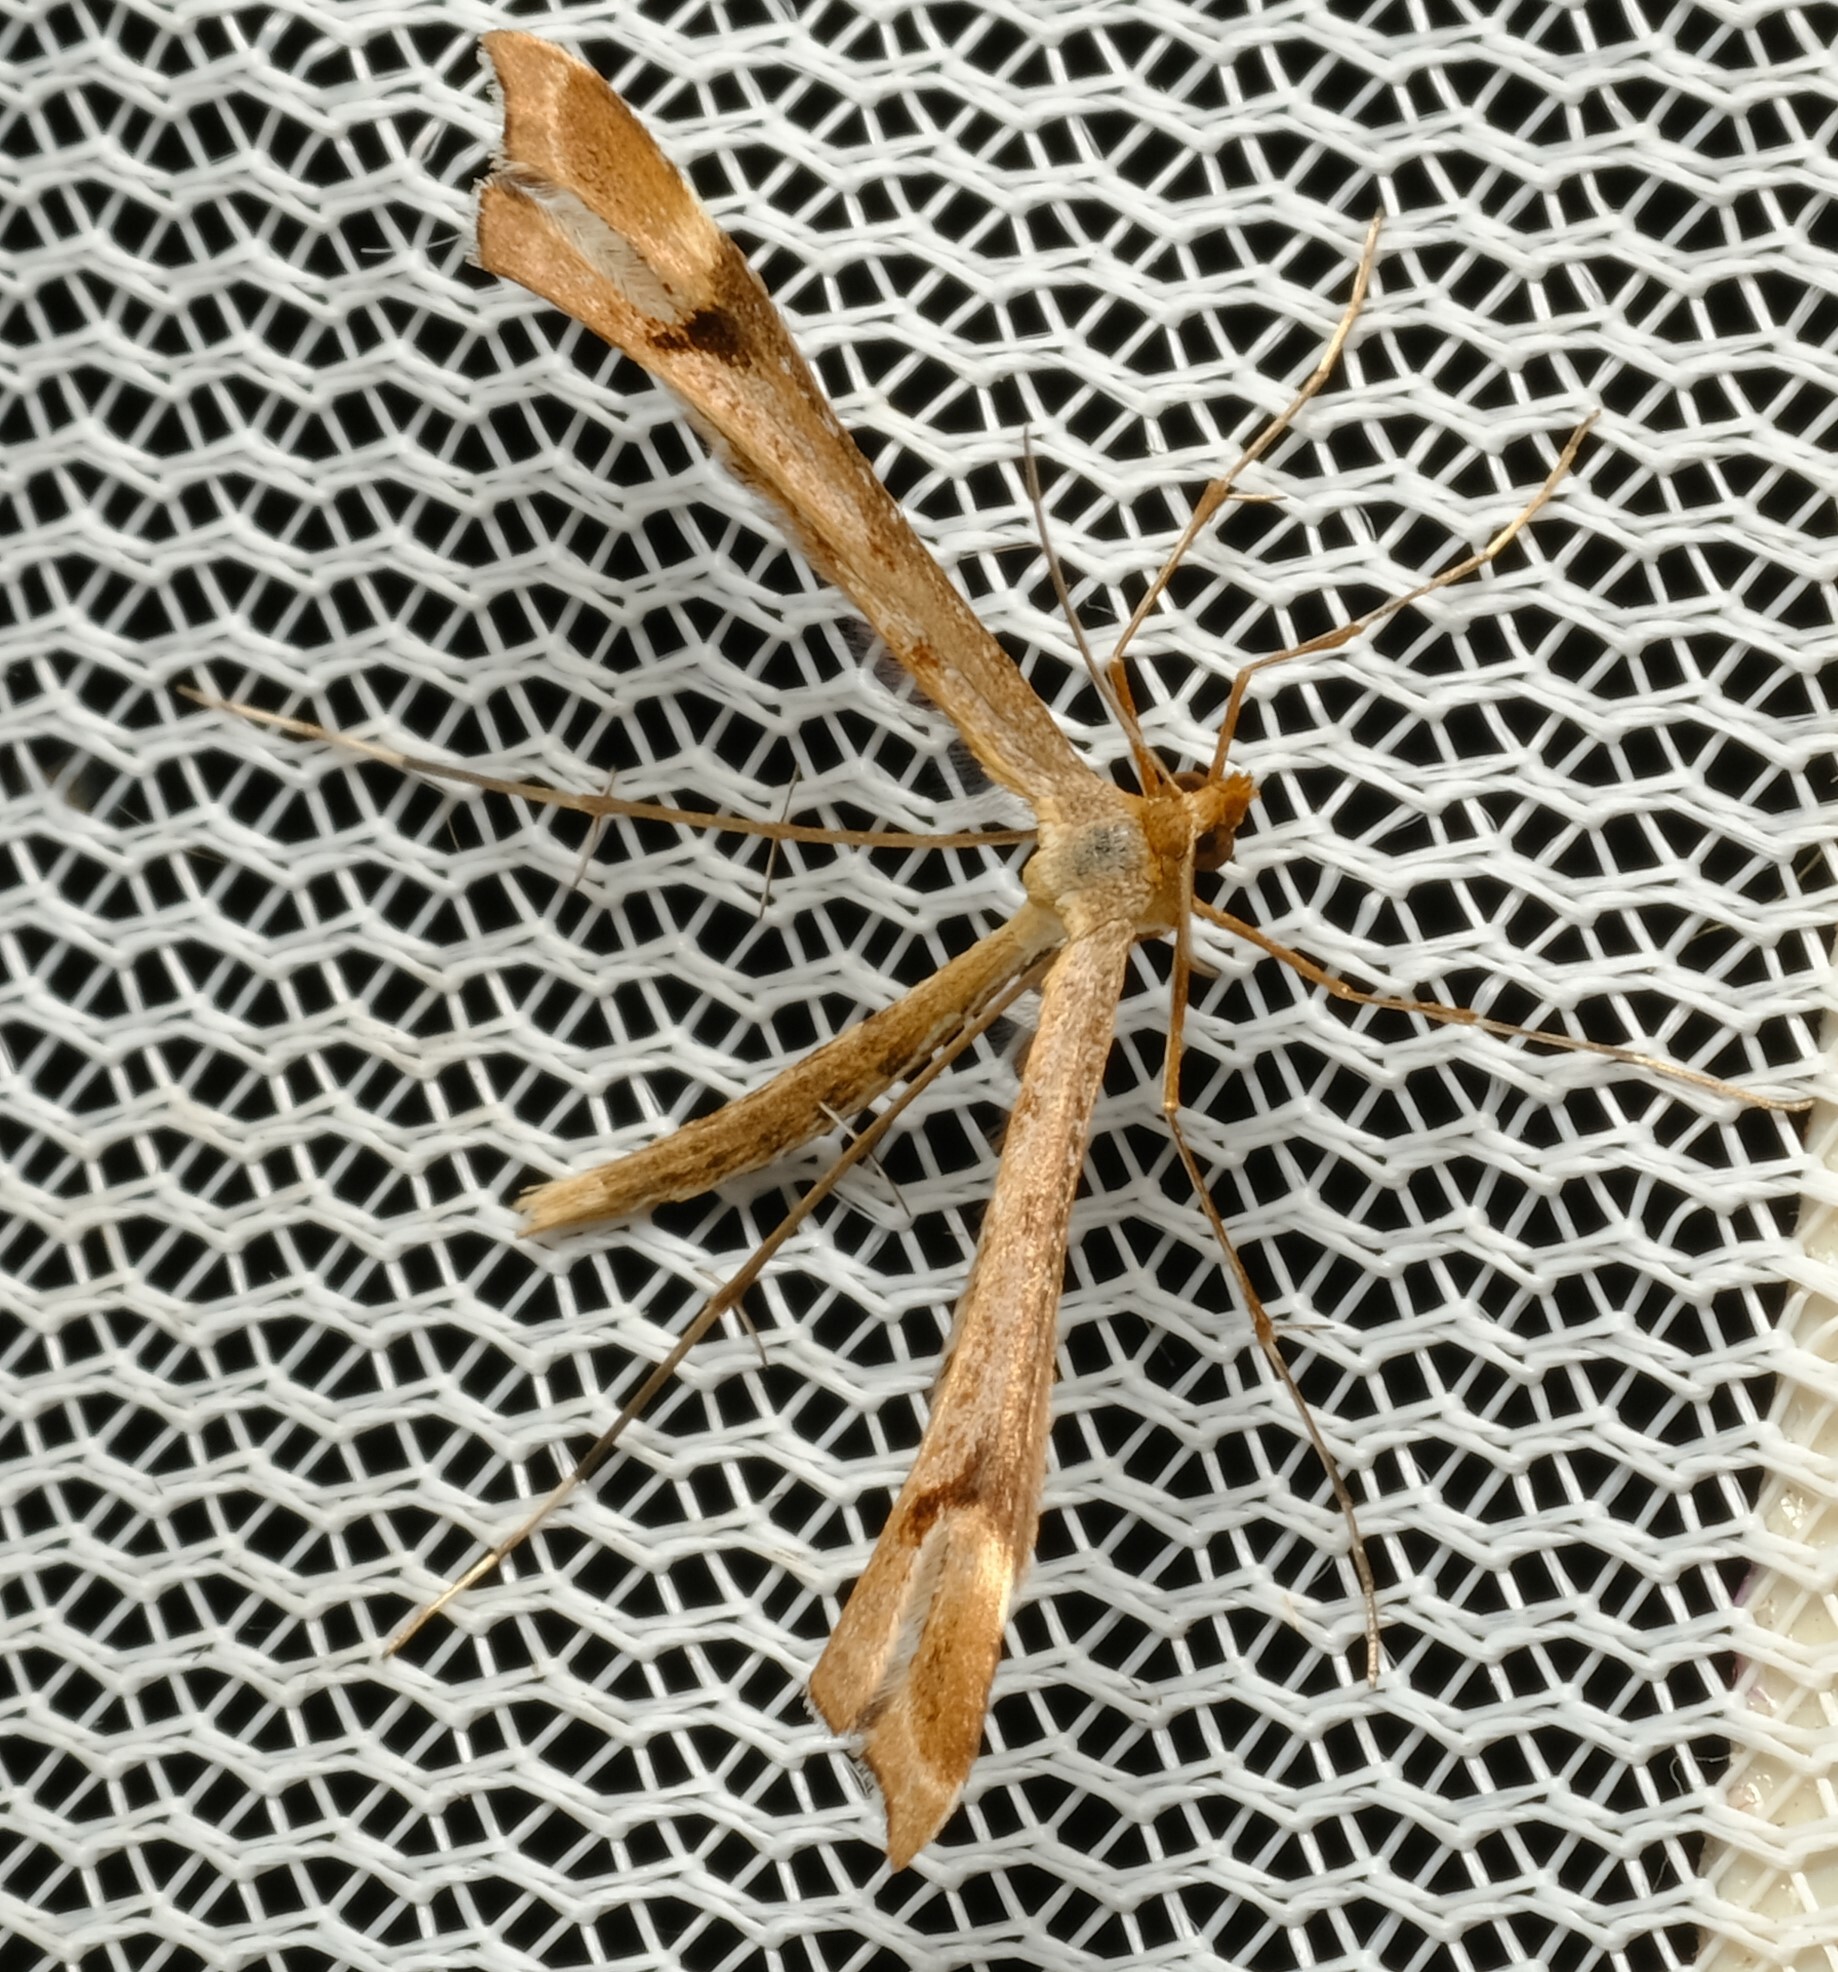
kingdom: Animalia
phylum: Arthropoda
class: Insecta
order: Lepidoptera
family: Pterophoridae
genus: Platyptilia
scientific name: Platyptilia celidotus
